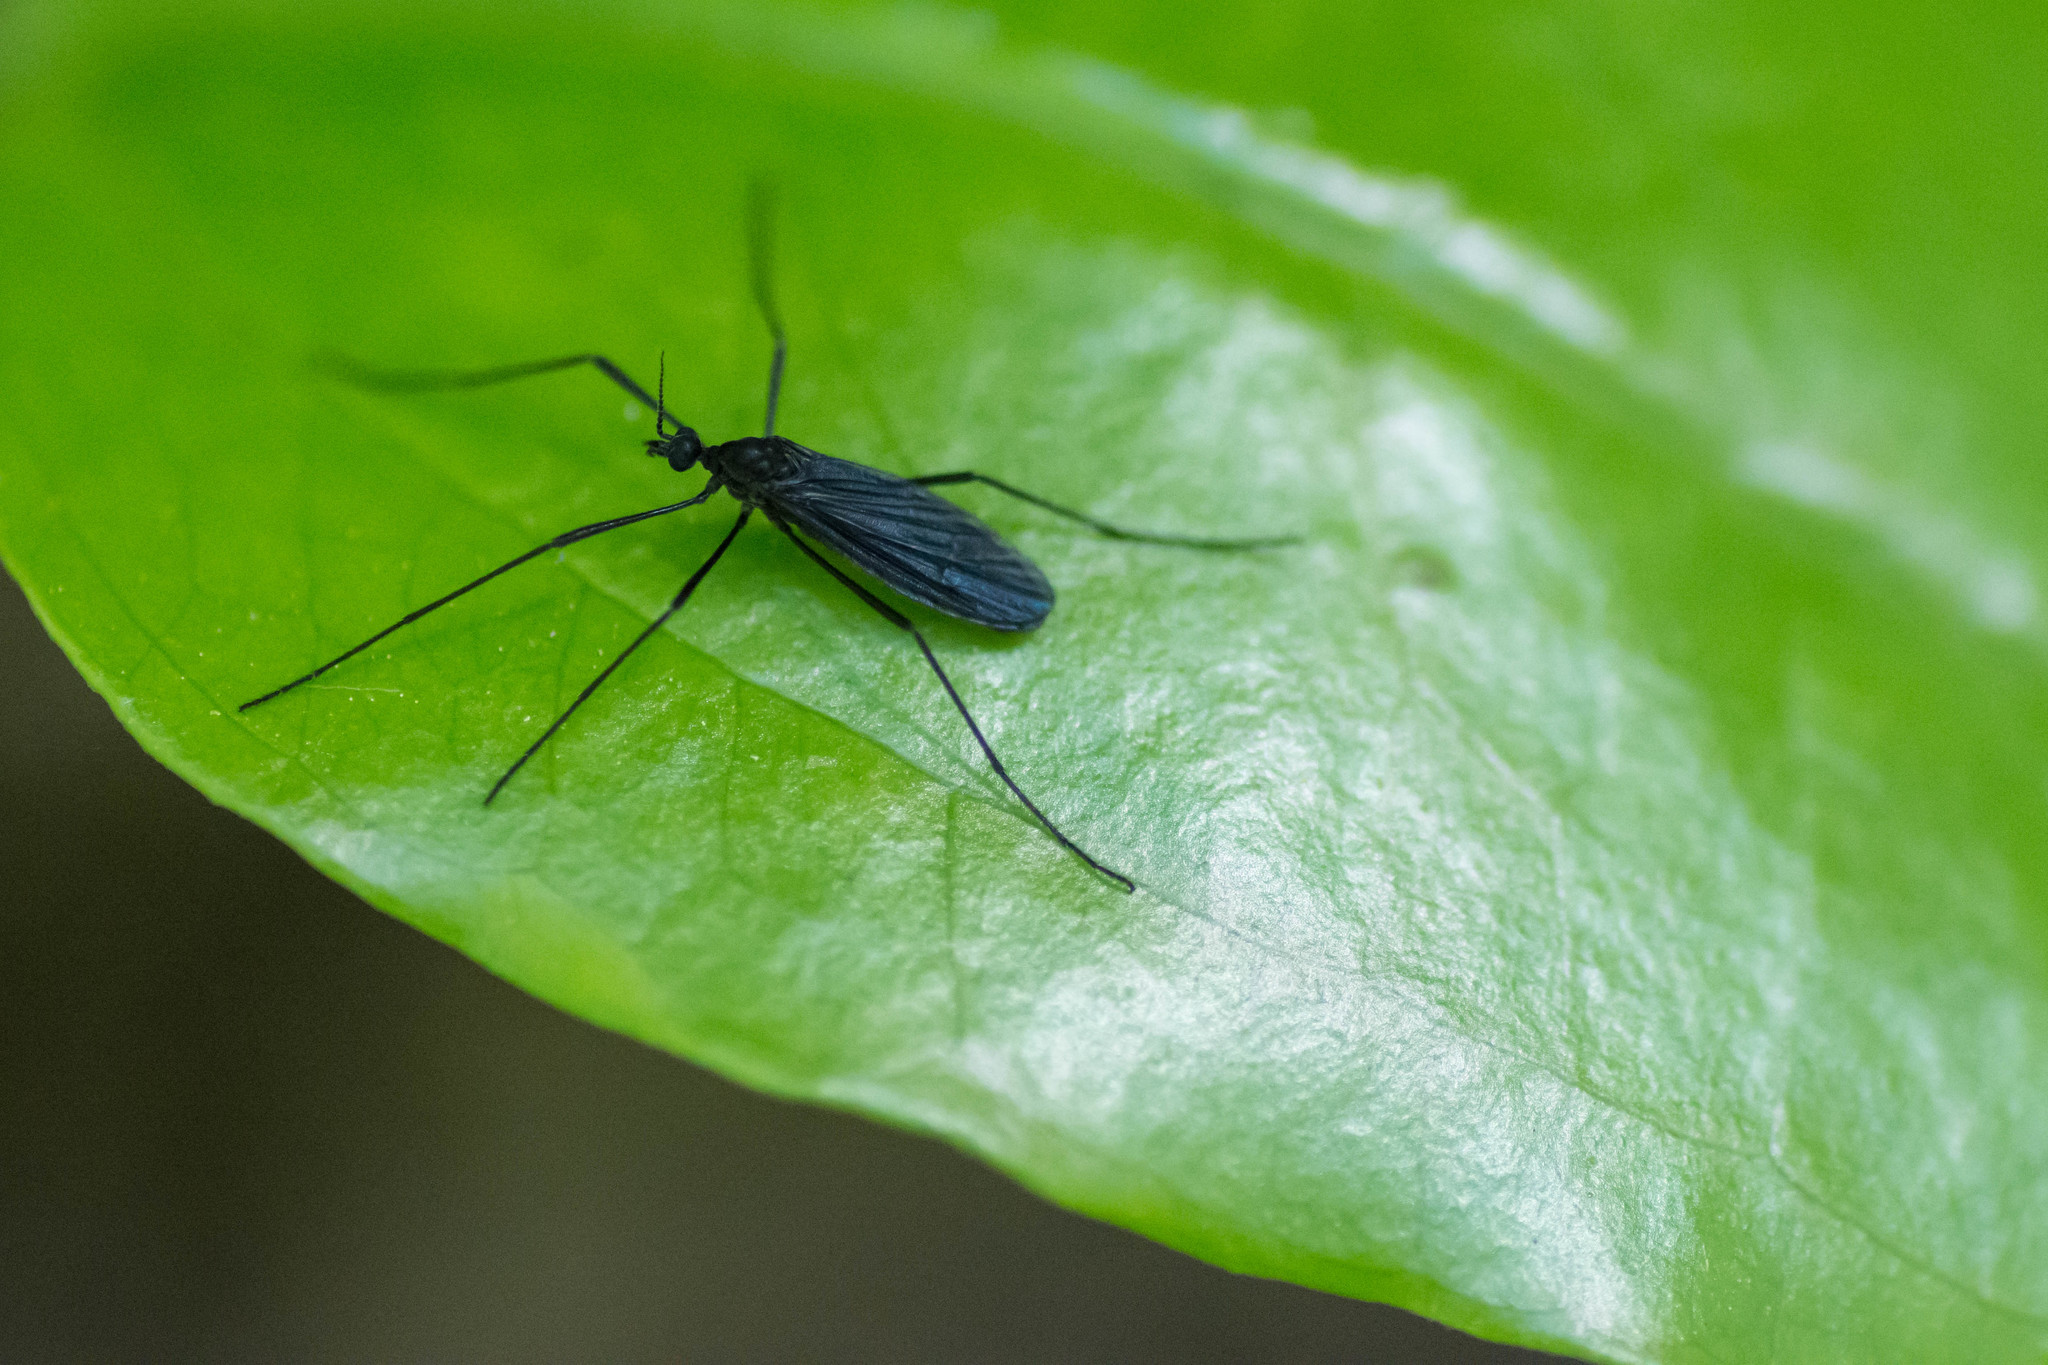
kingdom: Animalia
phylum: Arthropoda
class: Insecta
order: Diptera
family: Limoniidae
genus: Eugnophomyia
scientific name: Eugnophomyia luctuosa
